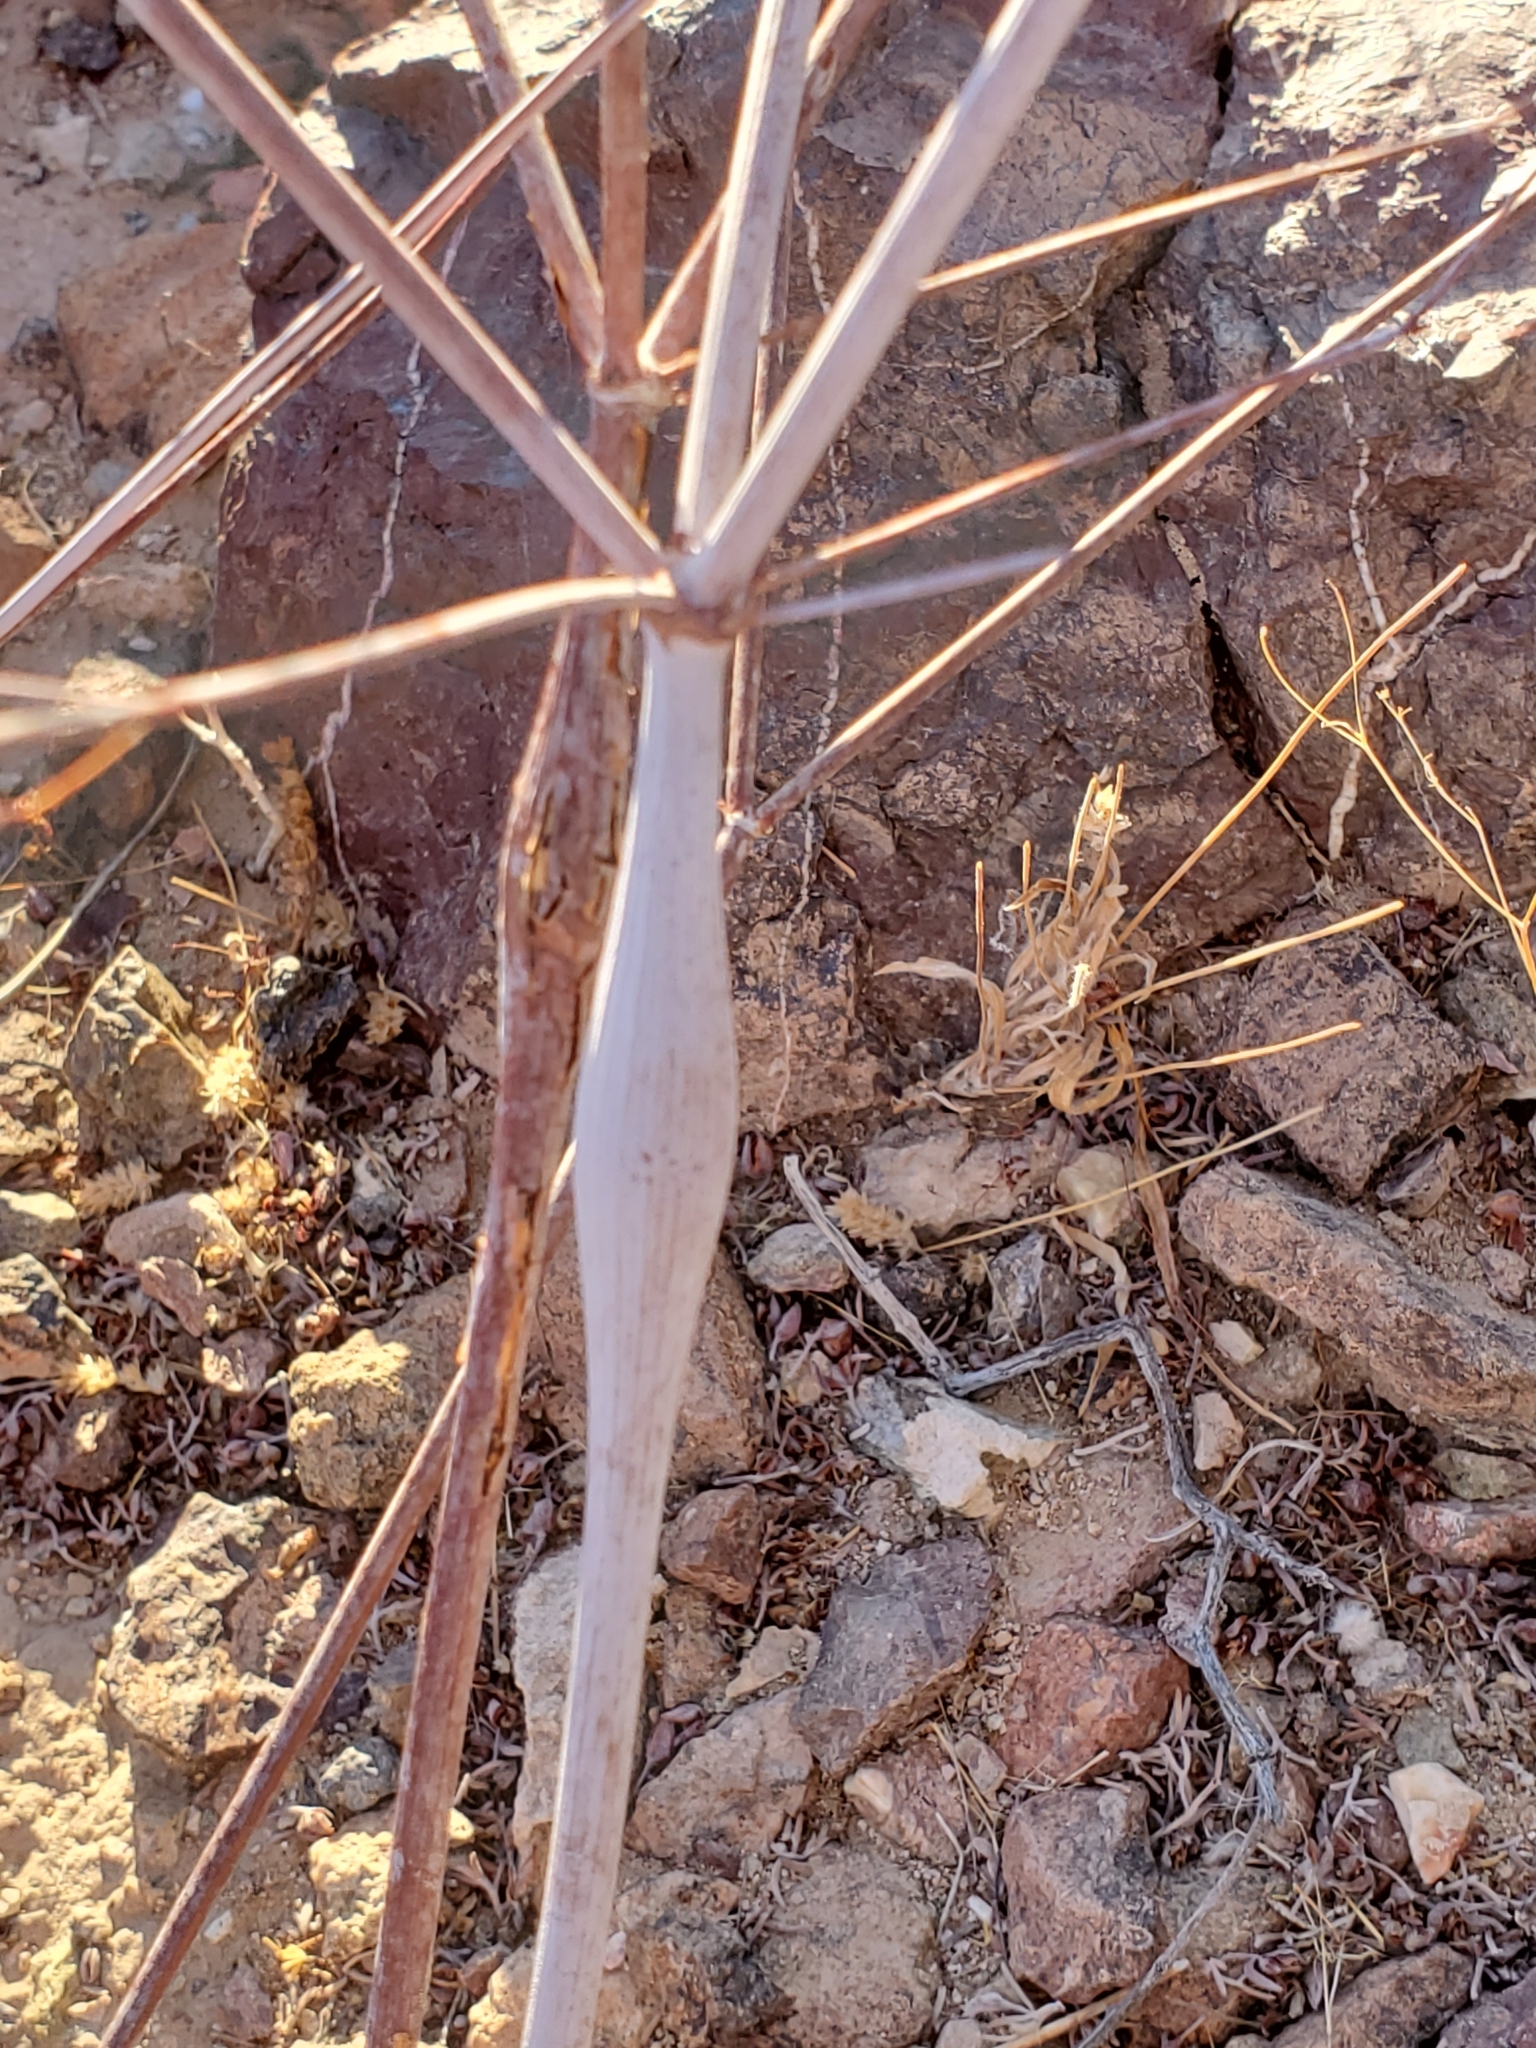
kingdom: Plantae
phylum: Tracheophyta
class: Magnoliopsida
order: Caryophyllales
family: Polygonaceae
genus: Eriogonum
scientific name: Eriogonum inflatum
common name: Desert trumpet
